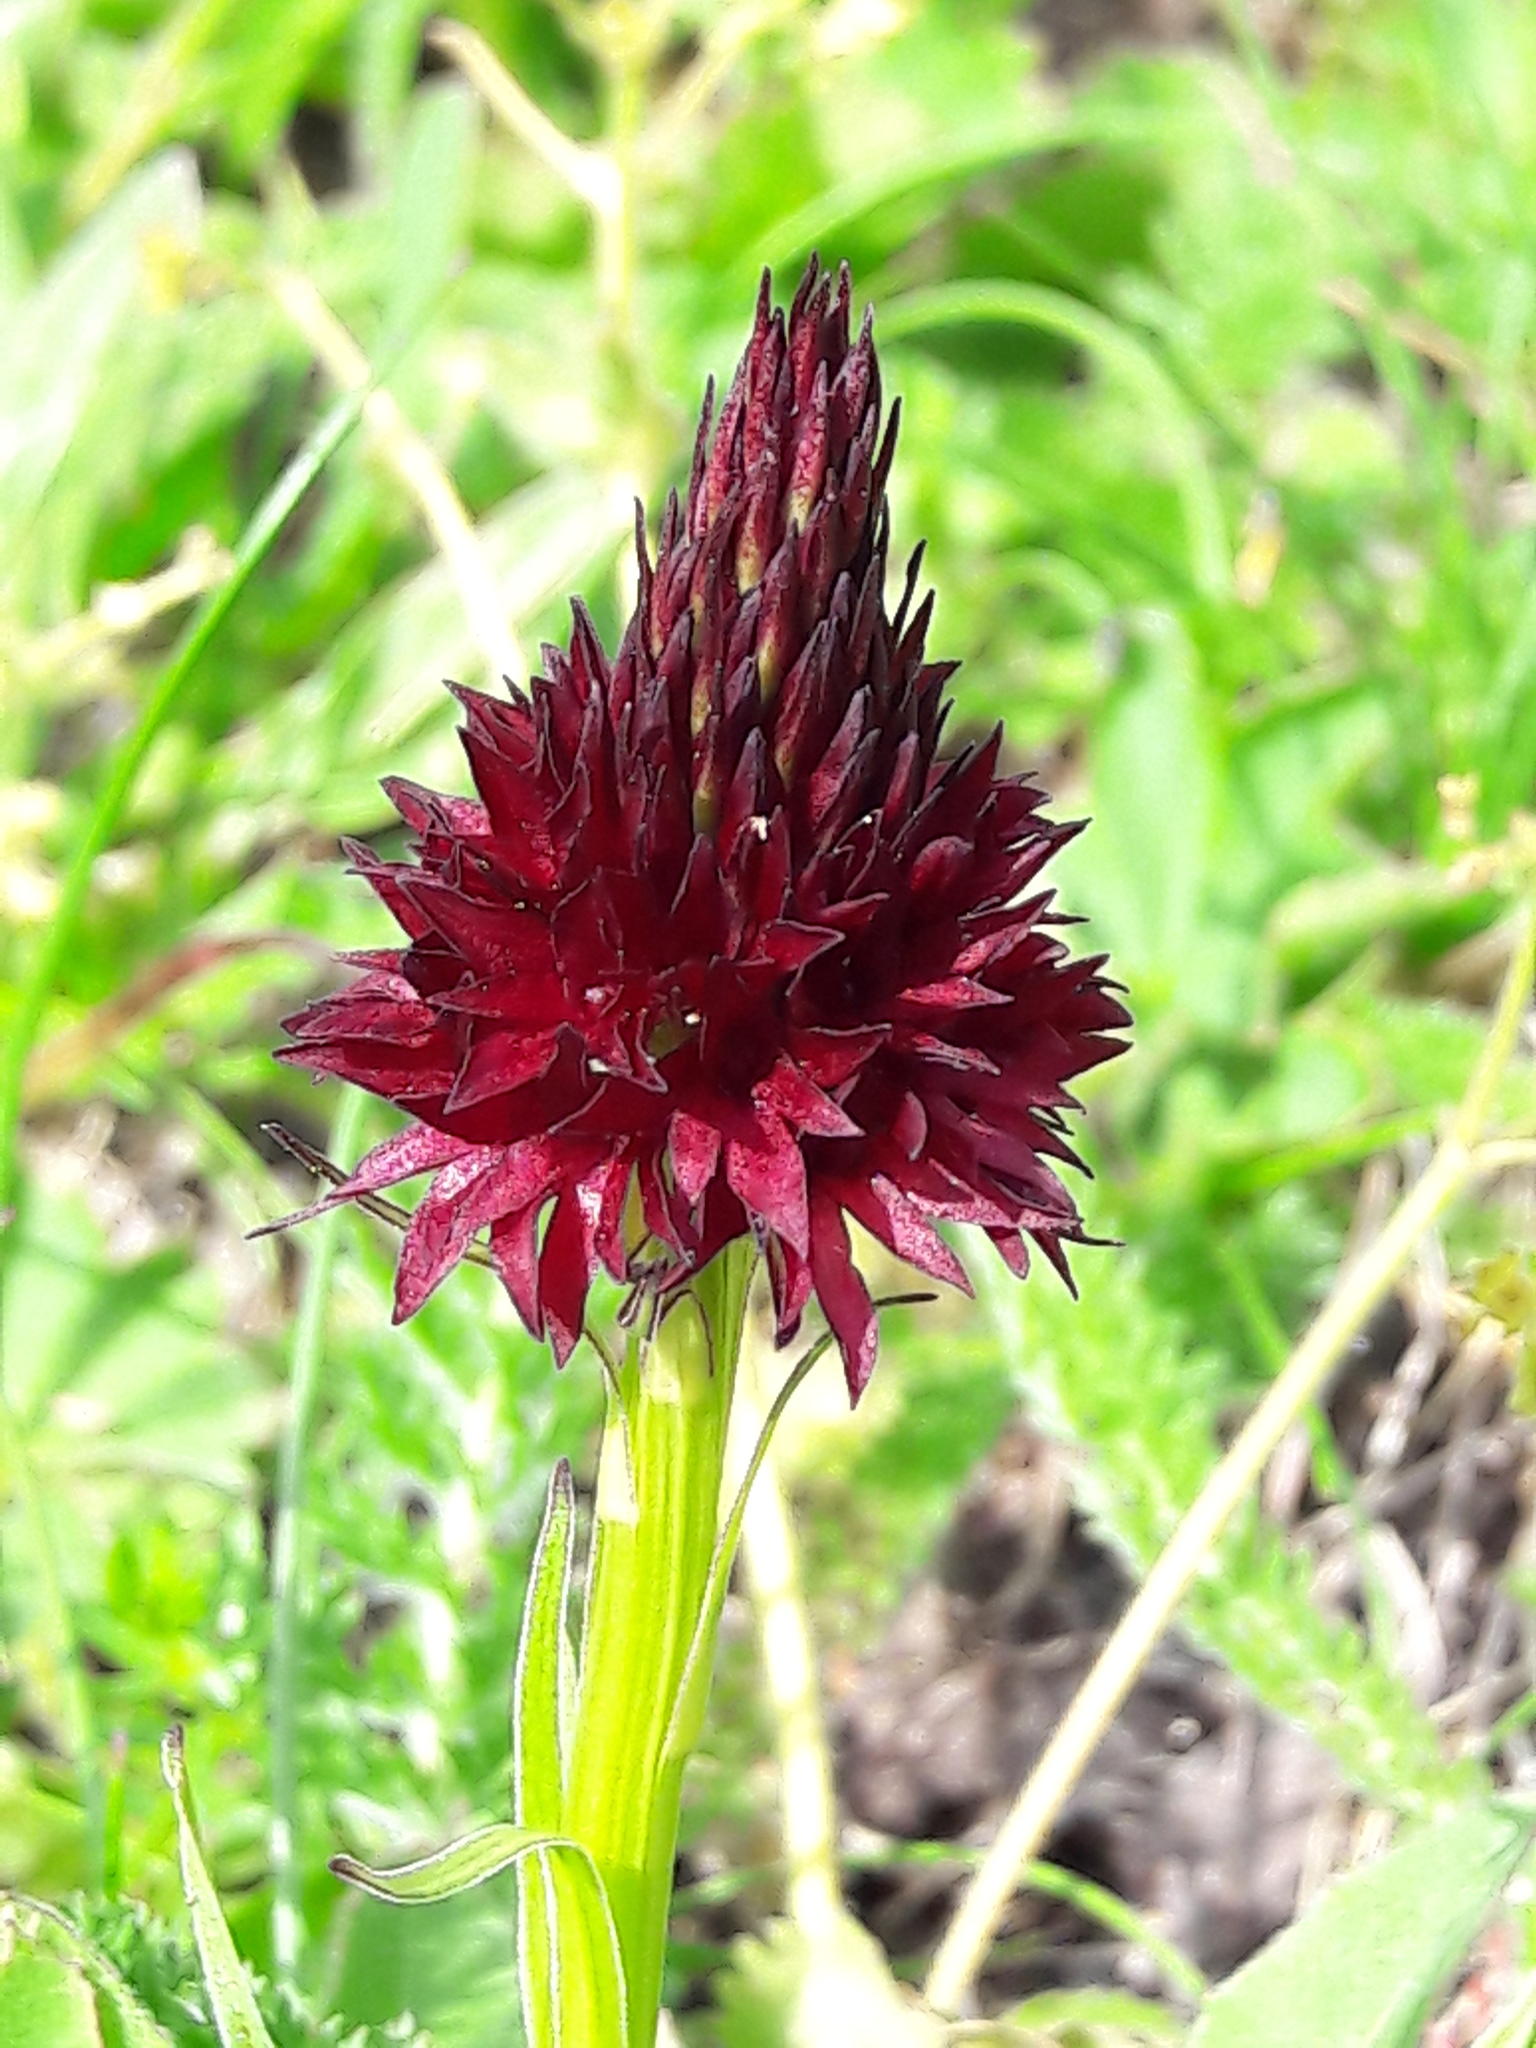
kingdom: Plantae
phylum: Tracheophyta
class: Liliopsida
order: Asparagales
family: Orchidaceae
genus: Gymnadenia
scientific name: Gymnadenia rhellicani
